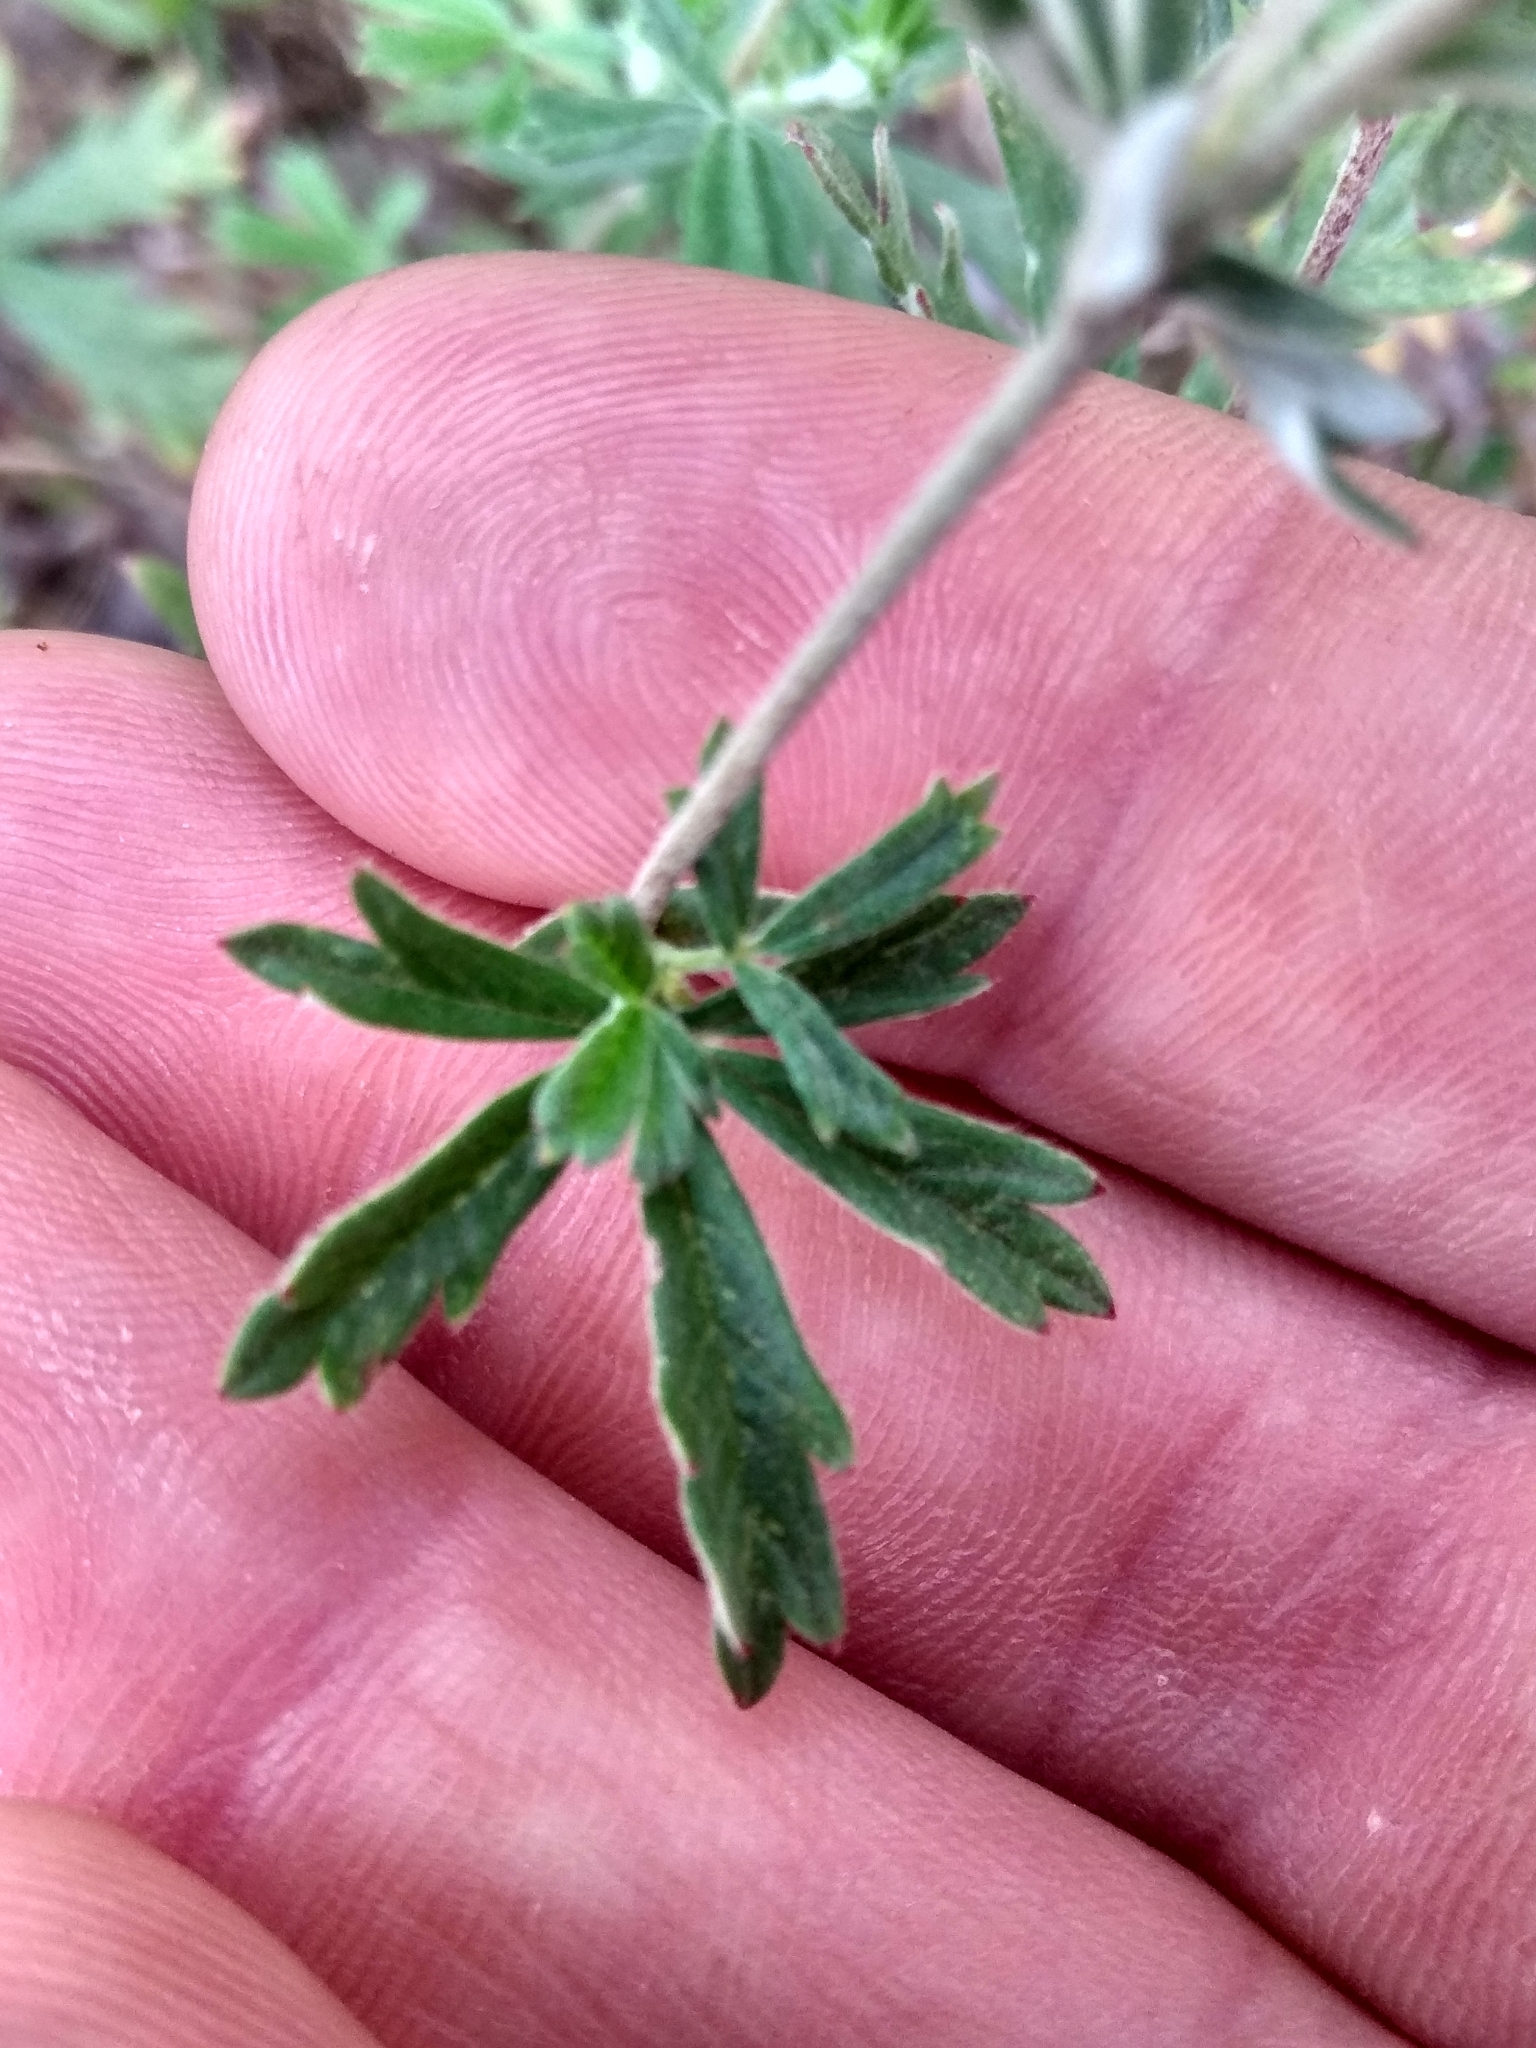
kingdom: Plantae
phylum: Tracheophyta
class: Magnoliopsida
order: Rosales
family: Rosaceae
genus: Potentilla
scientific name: Potentilla argentea
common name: Hoary cinquefoil
